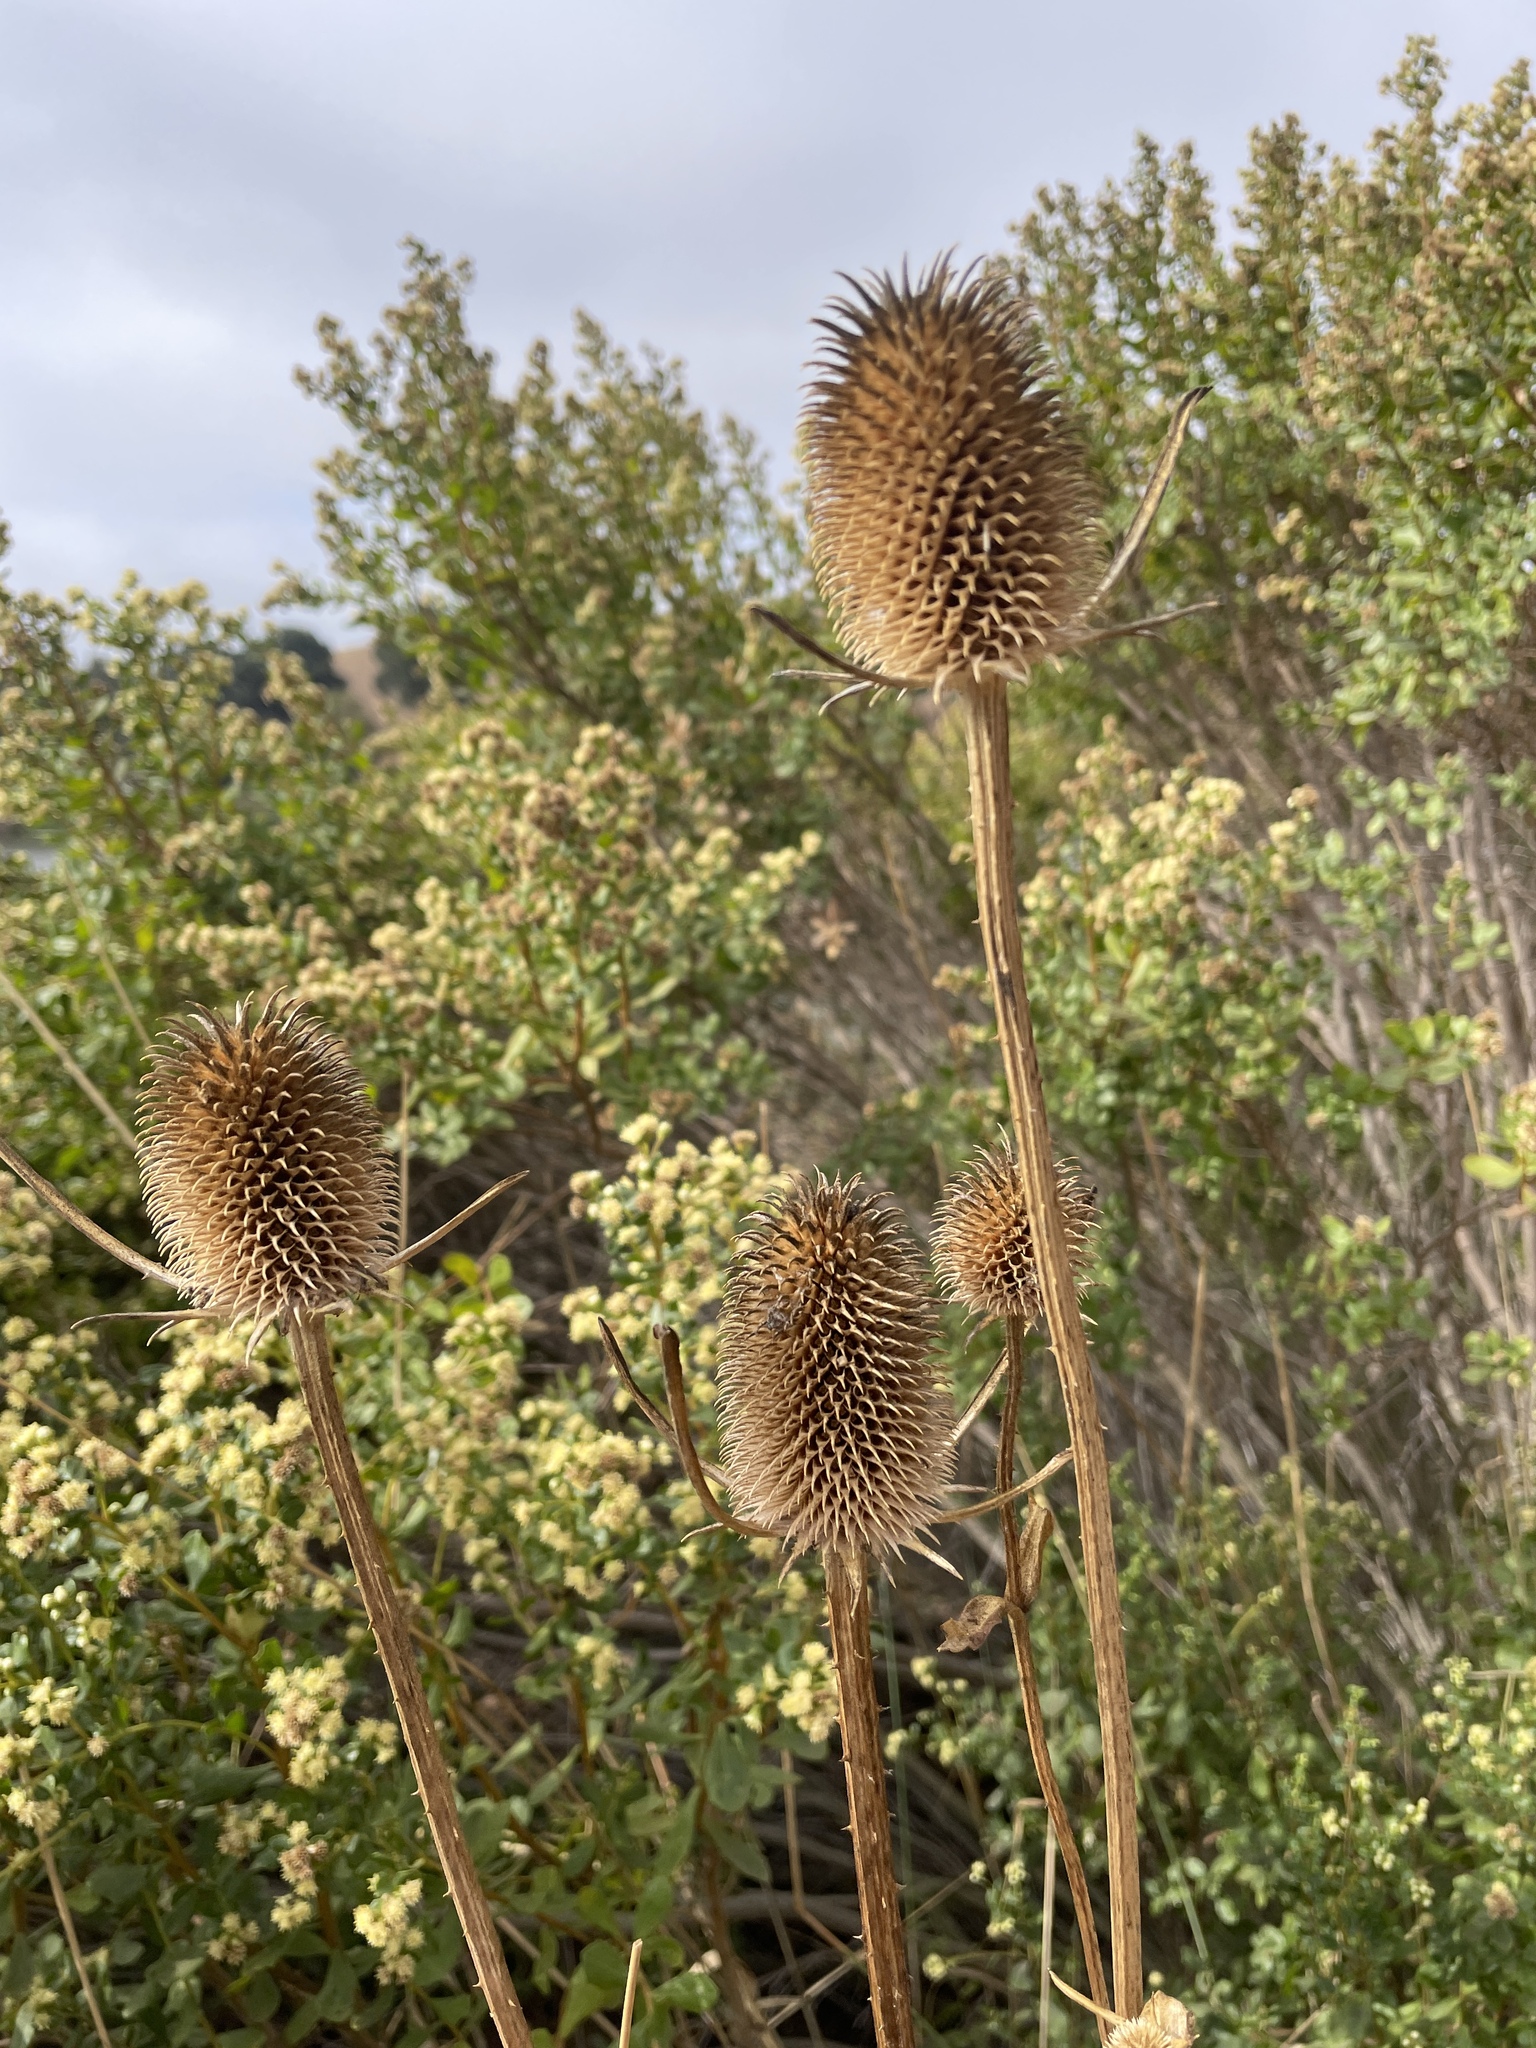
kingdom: Plantae
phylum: Tracheophyta
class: Magnoliopsida
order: Dipsacales
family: Caprifoliaceae
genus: Dipsacus
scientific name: Dipsacus sativus
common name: Fuller's teasel
